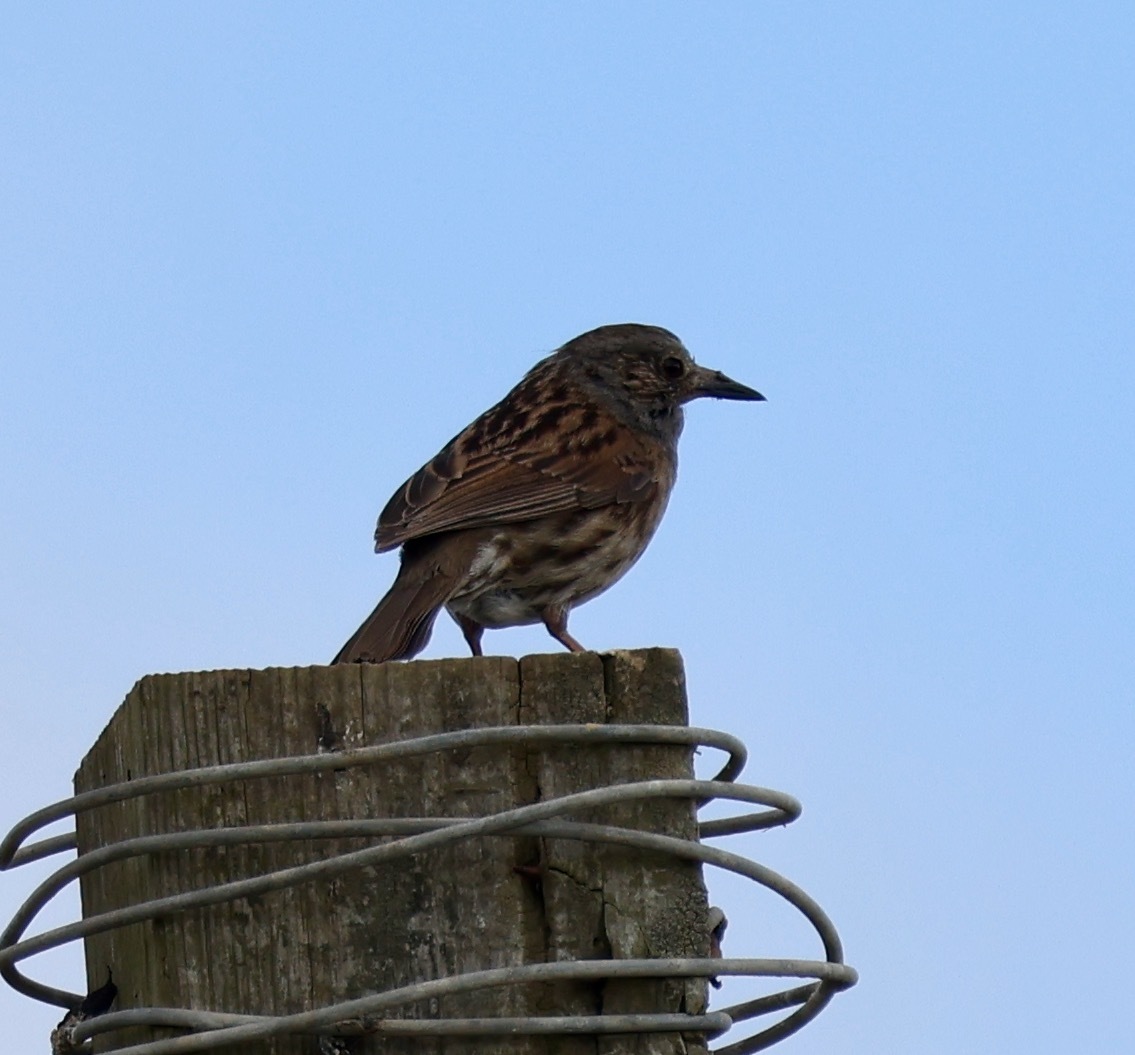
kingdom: Animalia
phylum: Chordata
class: Aves
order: Passeriformes
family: Prunellidae
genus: Prunella
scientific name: Prunella modularis
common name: Dunnock
